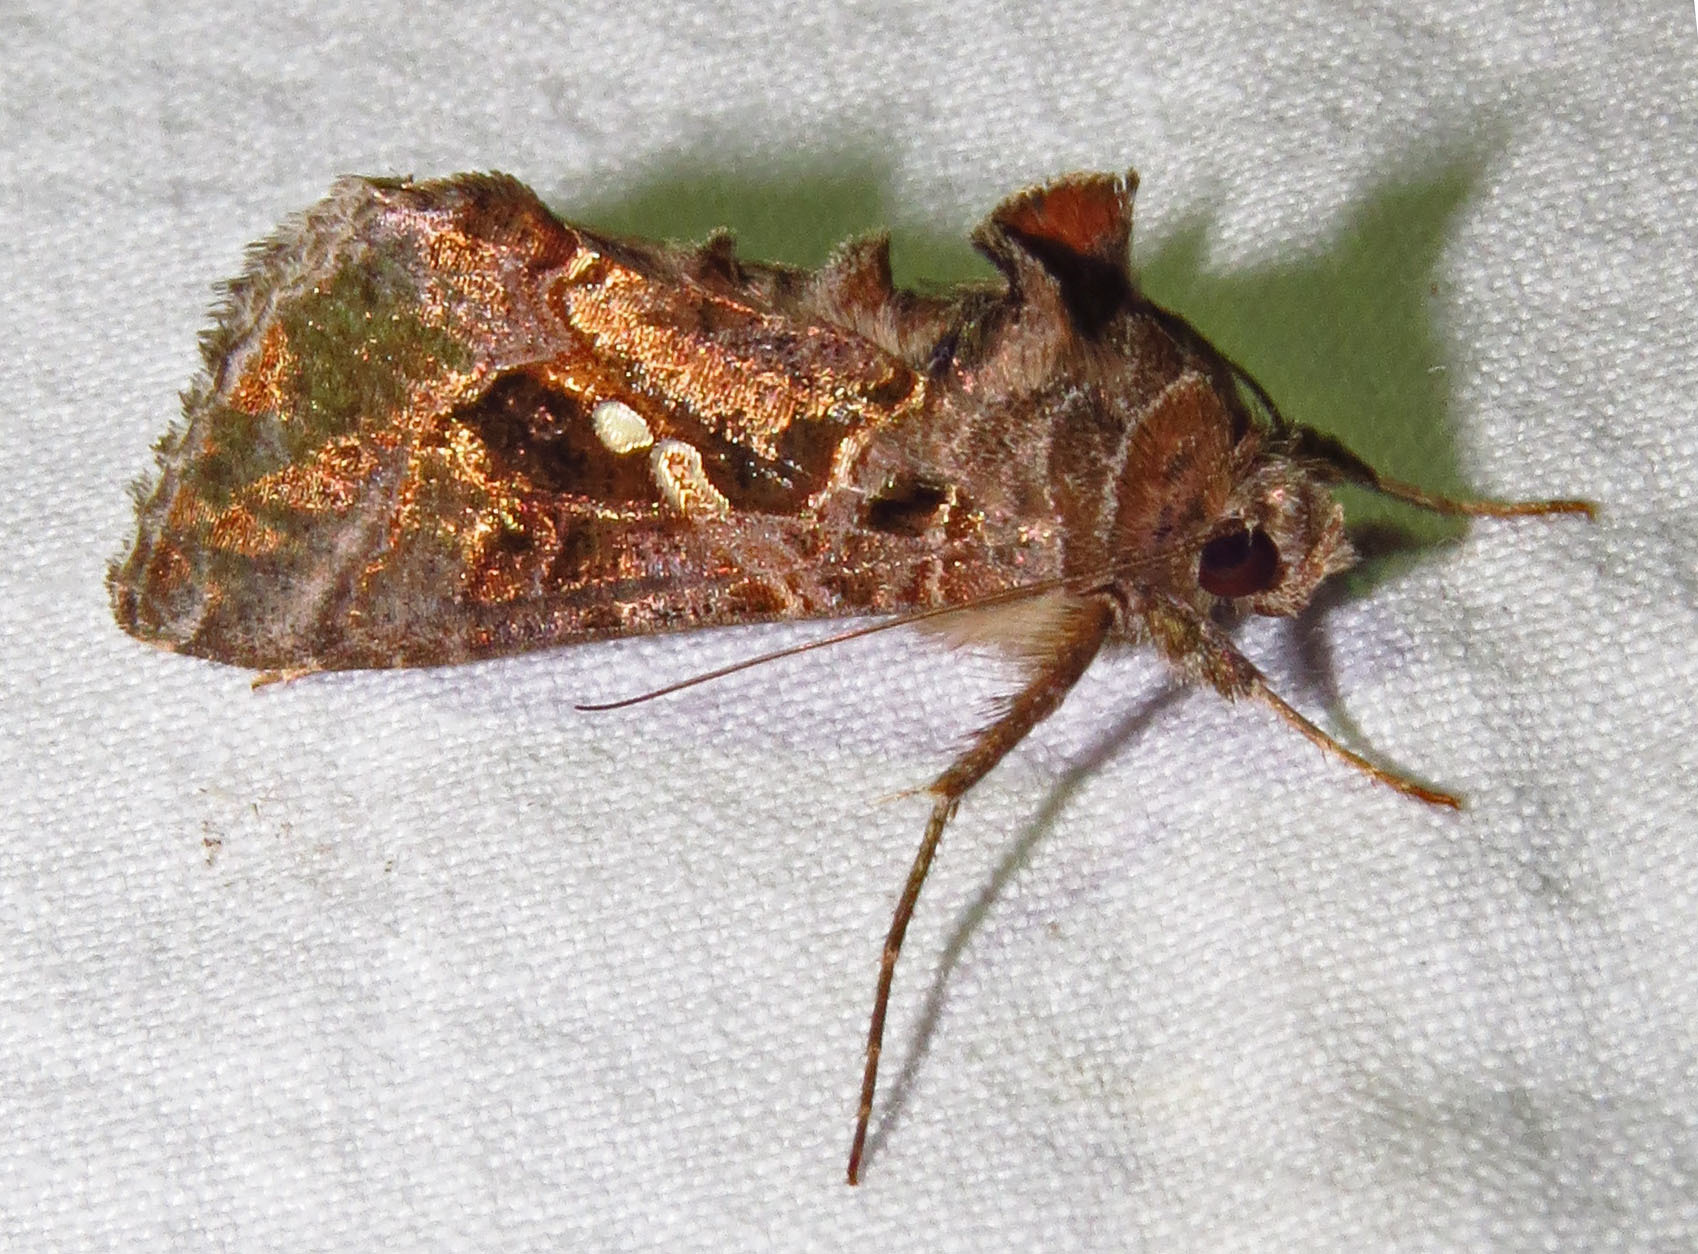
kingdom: Animalia
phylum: Arthropoda
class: Insecta
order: Lepidoptera
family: Noctuidae
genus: Chrysodeixis
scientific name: Chrysodeixis includens
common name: Cutworm moth
